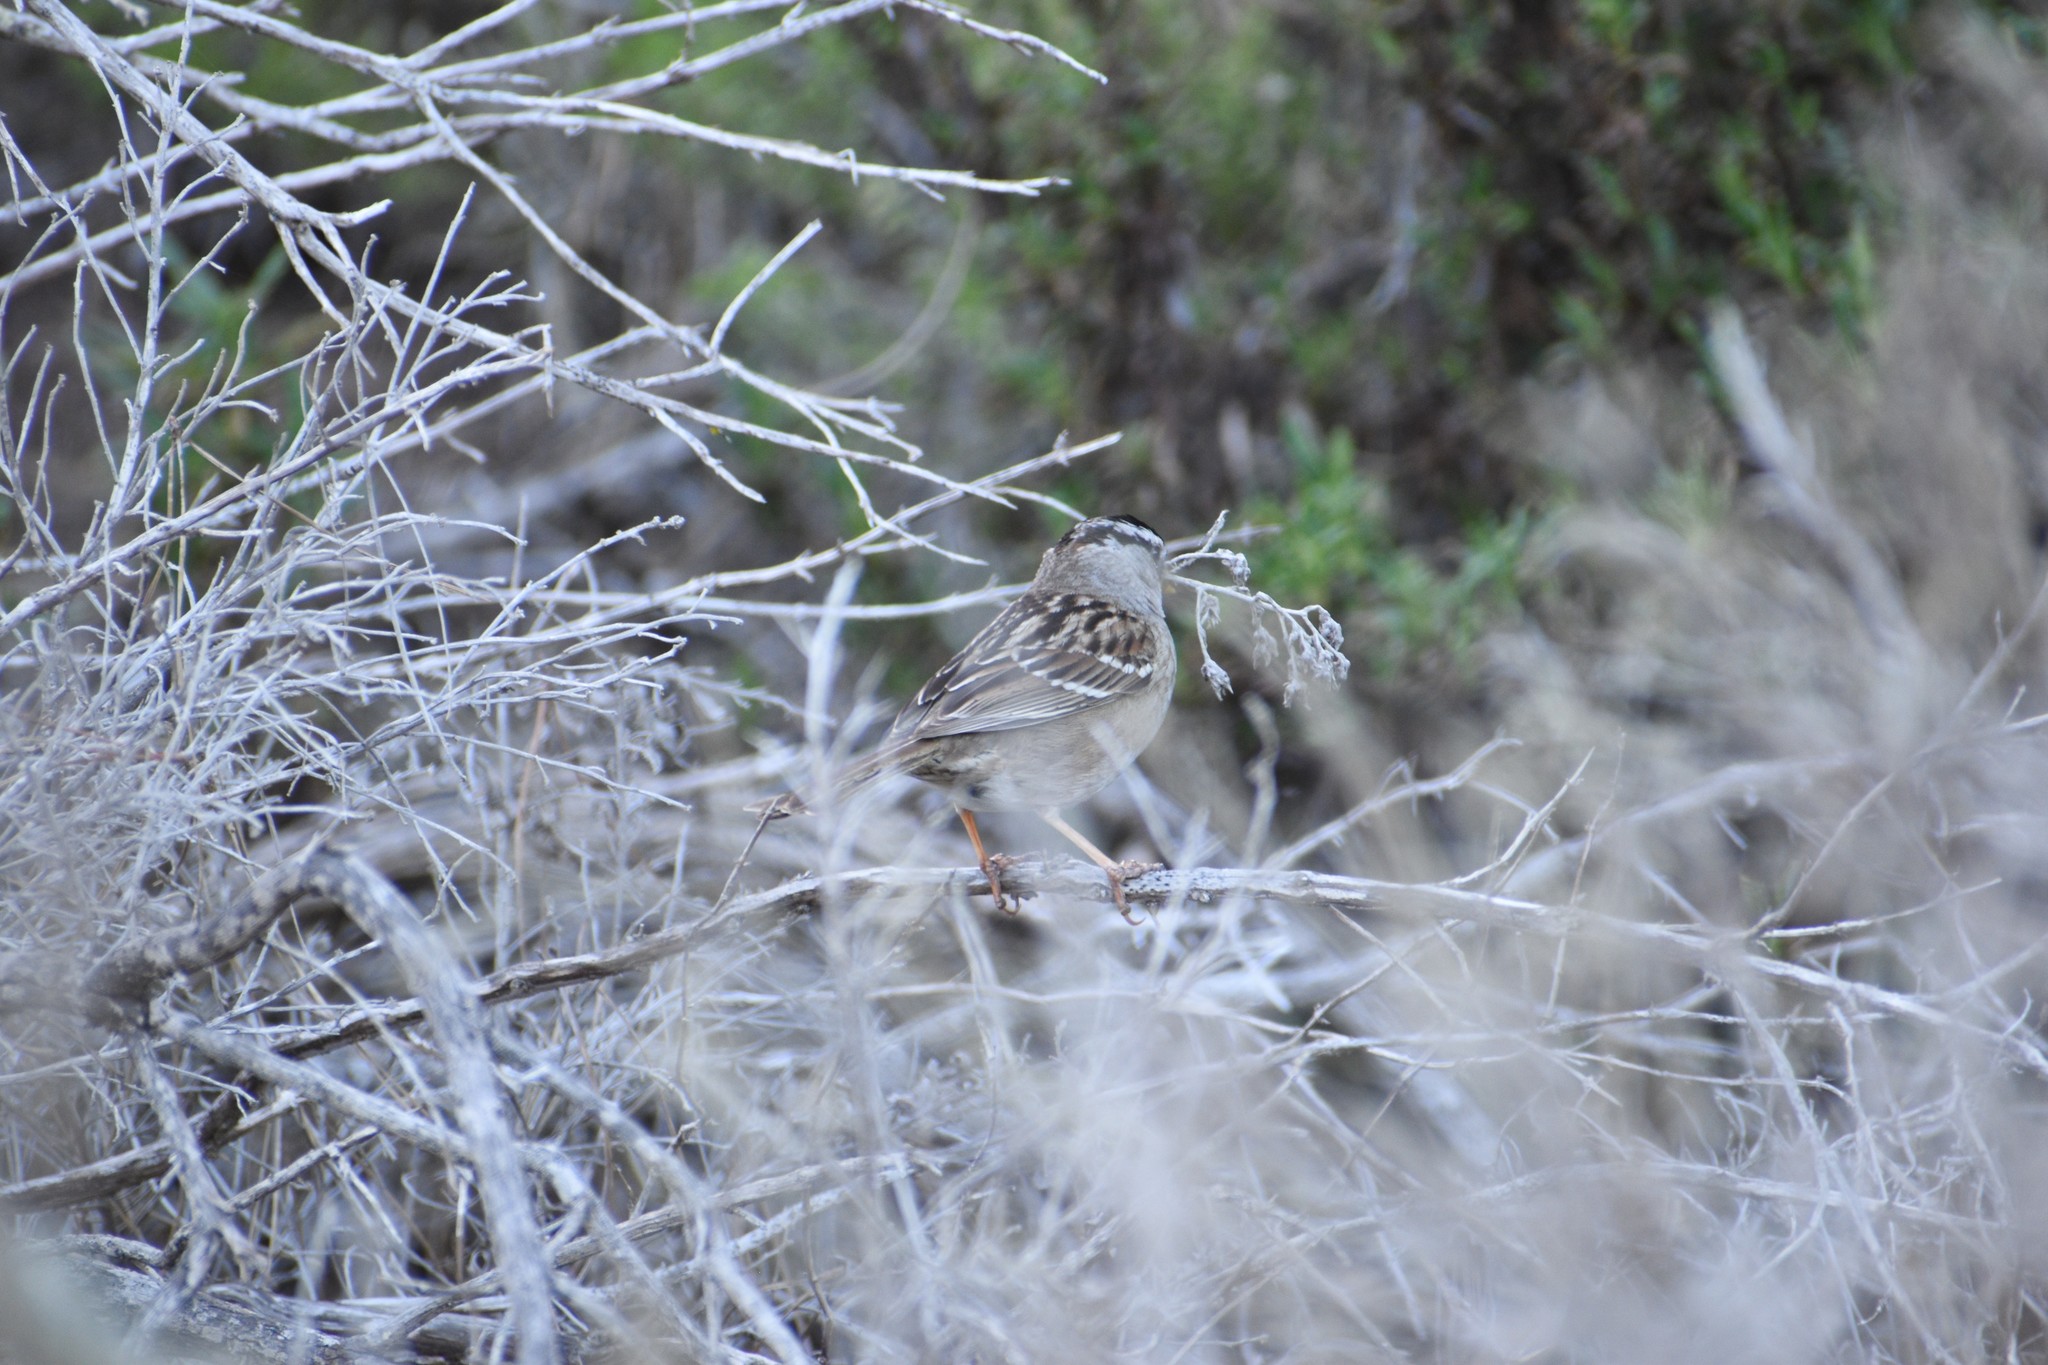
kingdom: Animalia
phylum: Chordata
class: Aves
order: Passeriformes
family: Passerellidae
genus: Zonotrichia
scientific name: Zonotrichia leucophrys
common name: White-crowned sparrow
